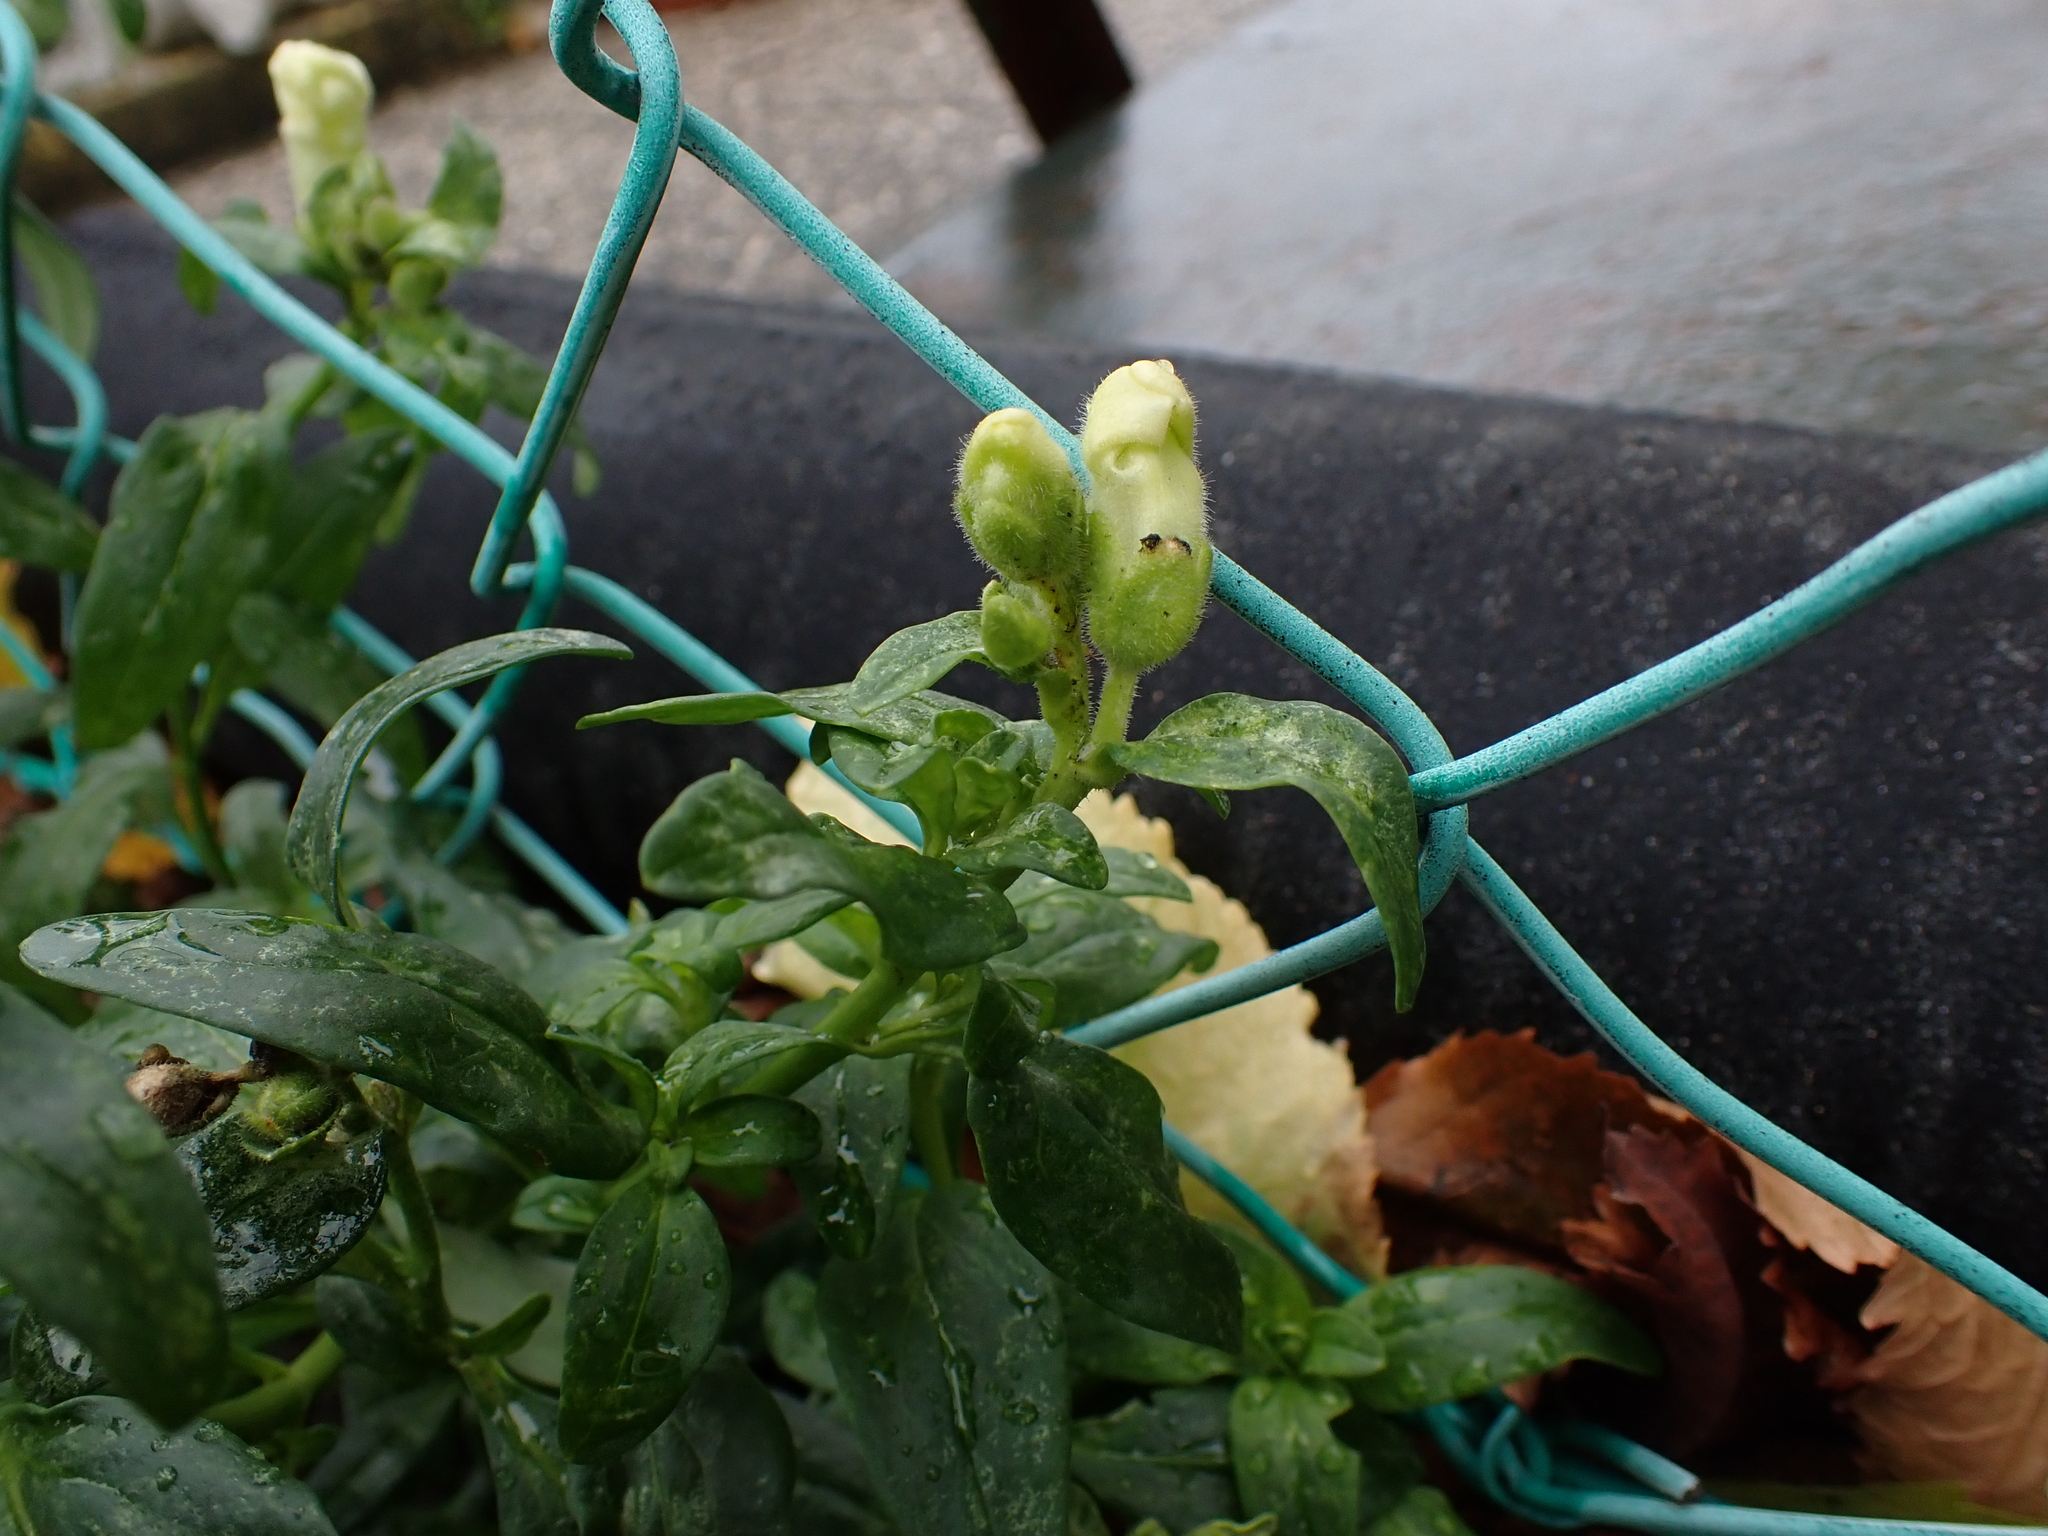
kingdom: Plantae
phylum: Tracheophyta
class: Magnoliopsida
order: Lamiales
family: Plantaginaceae
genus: Antirrhinum
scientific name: Antirrhinum majus
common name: Snapdragon
